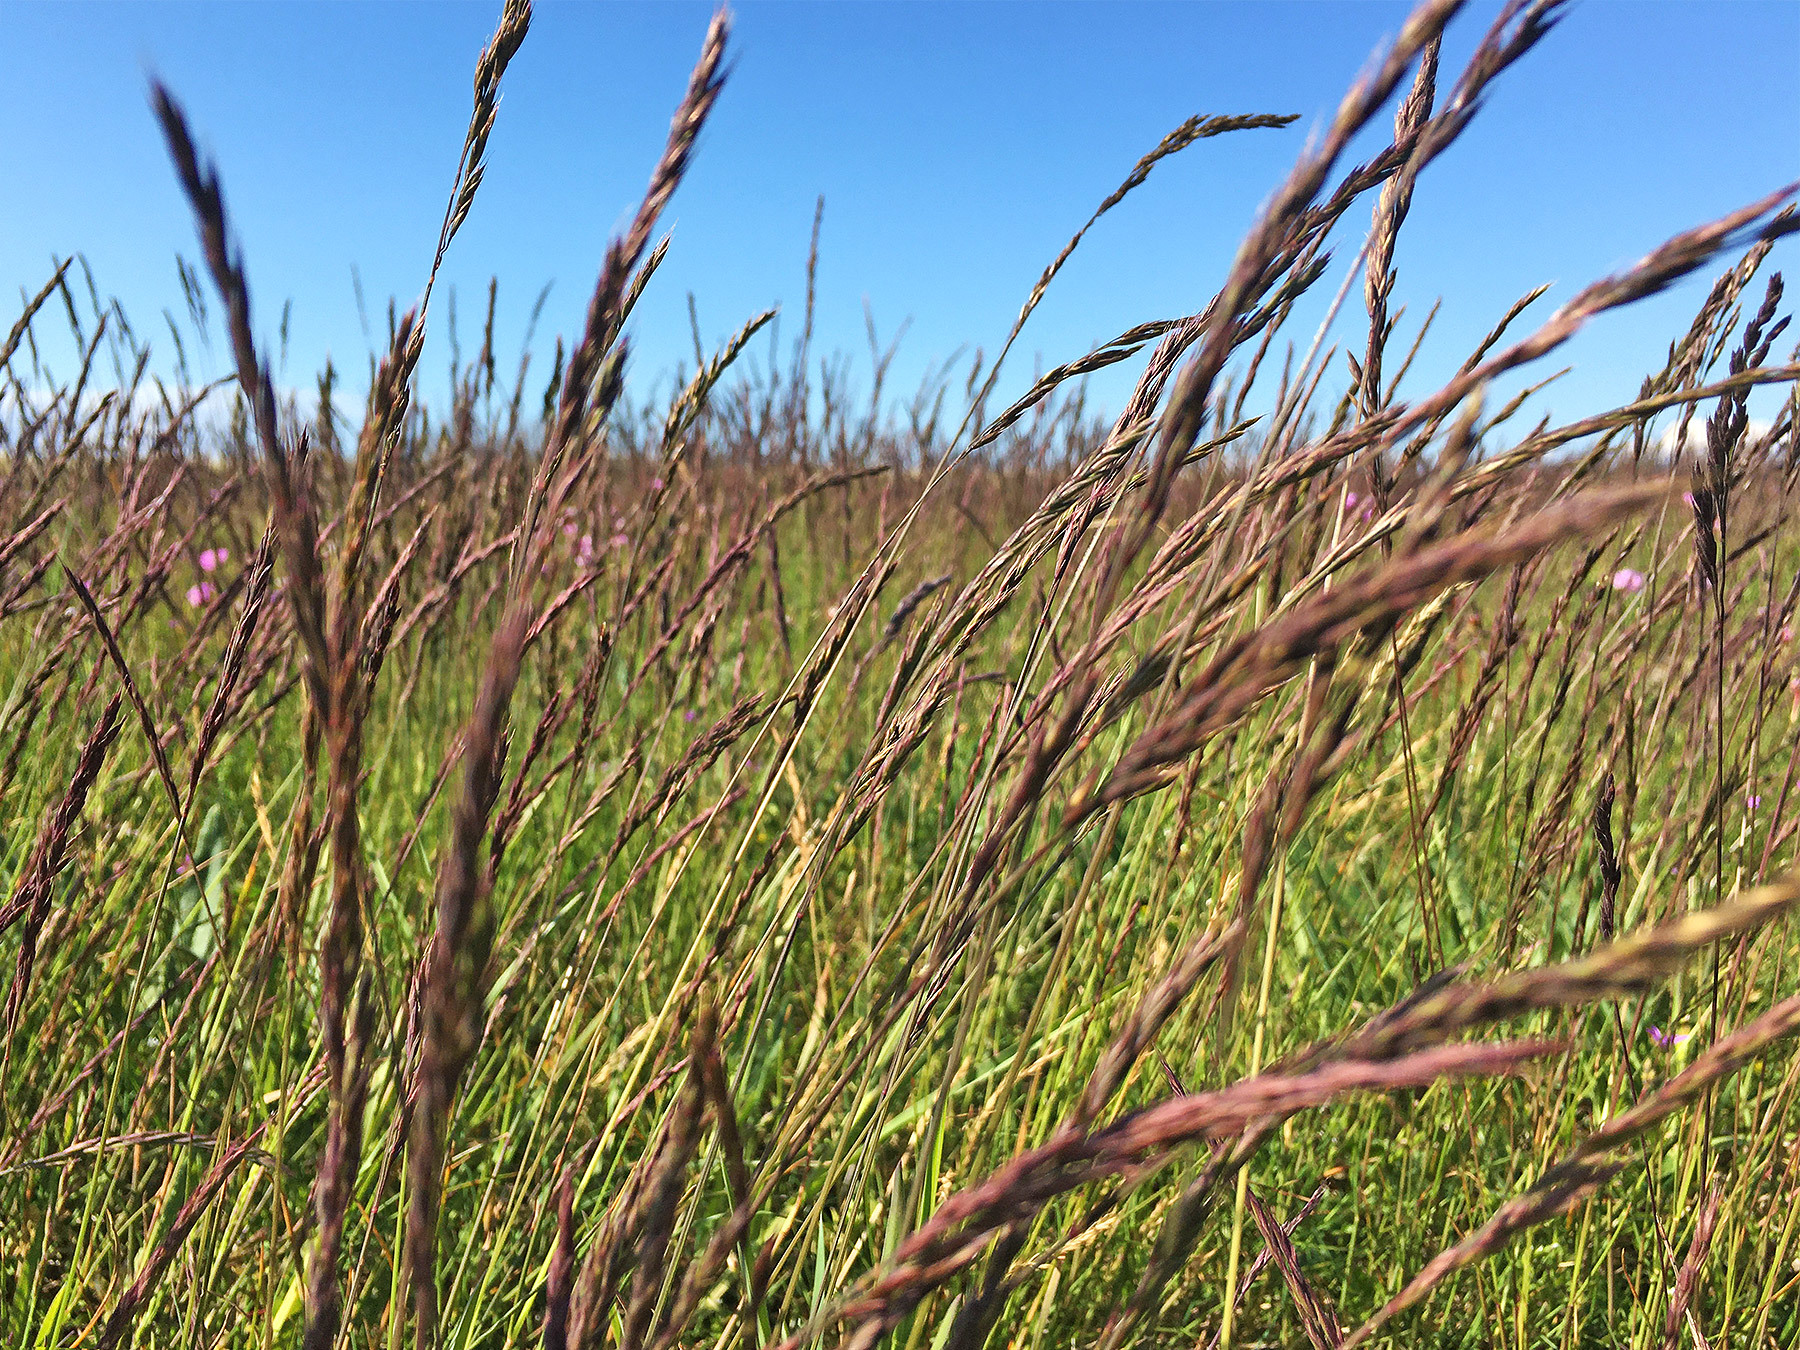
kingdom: Plantae
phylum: Tracheophyta
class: Liliopsida
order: Poales
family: Poaceae
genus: Festuca
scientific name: Festuca rubra
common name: Red fescue
